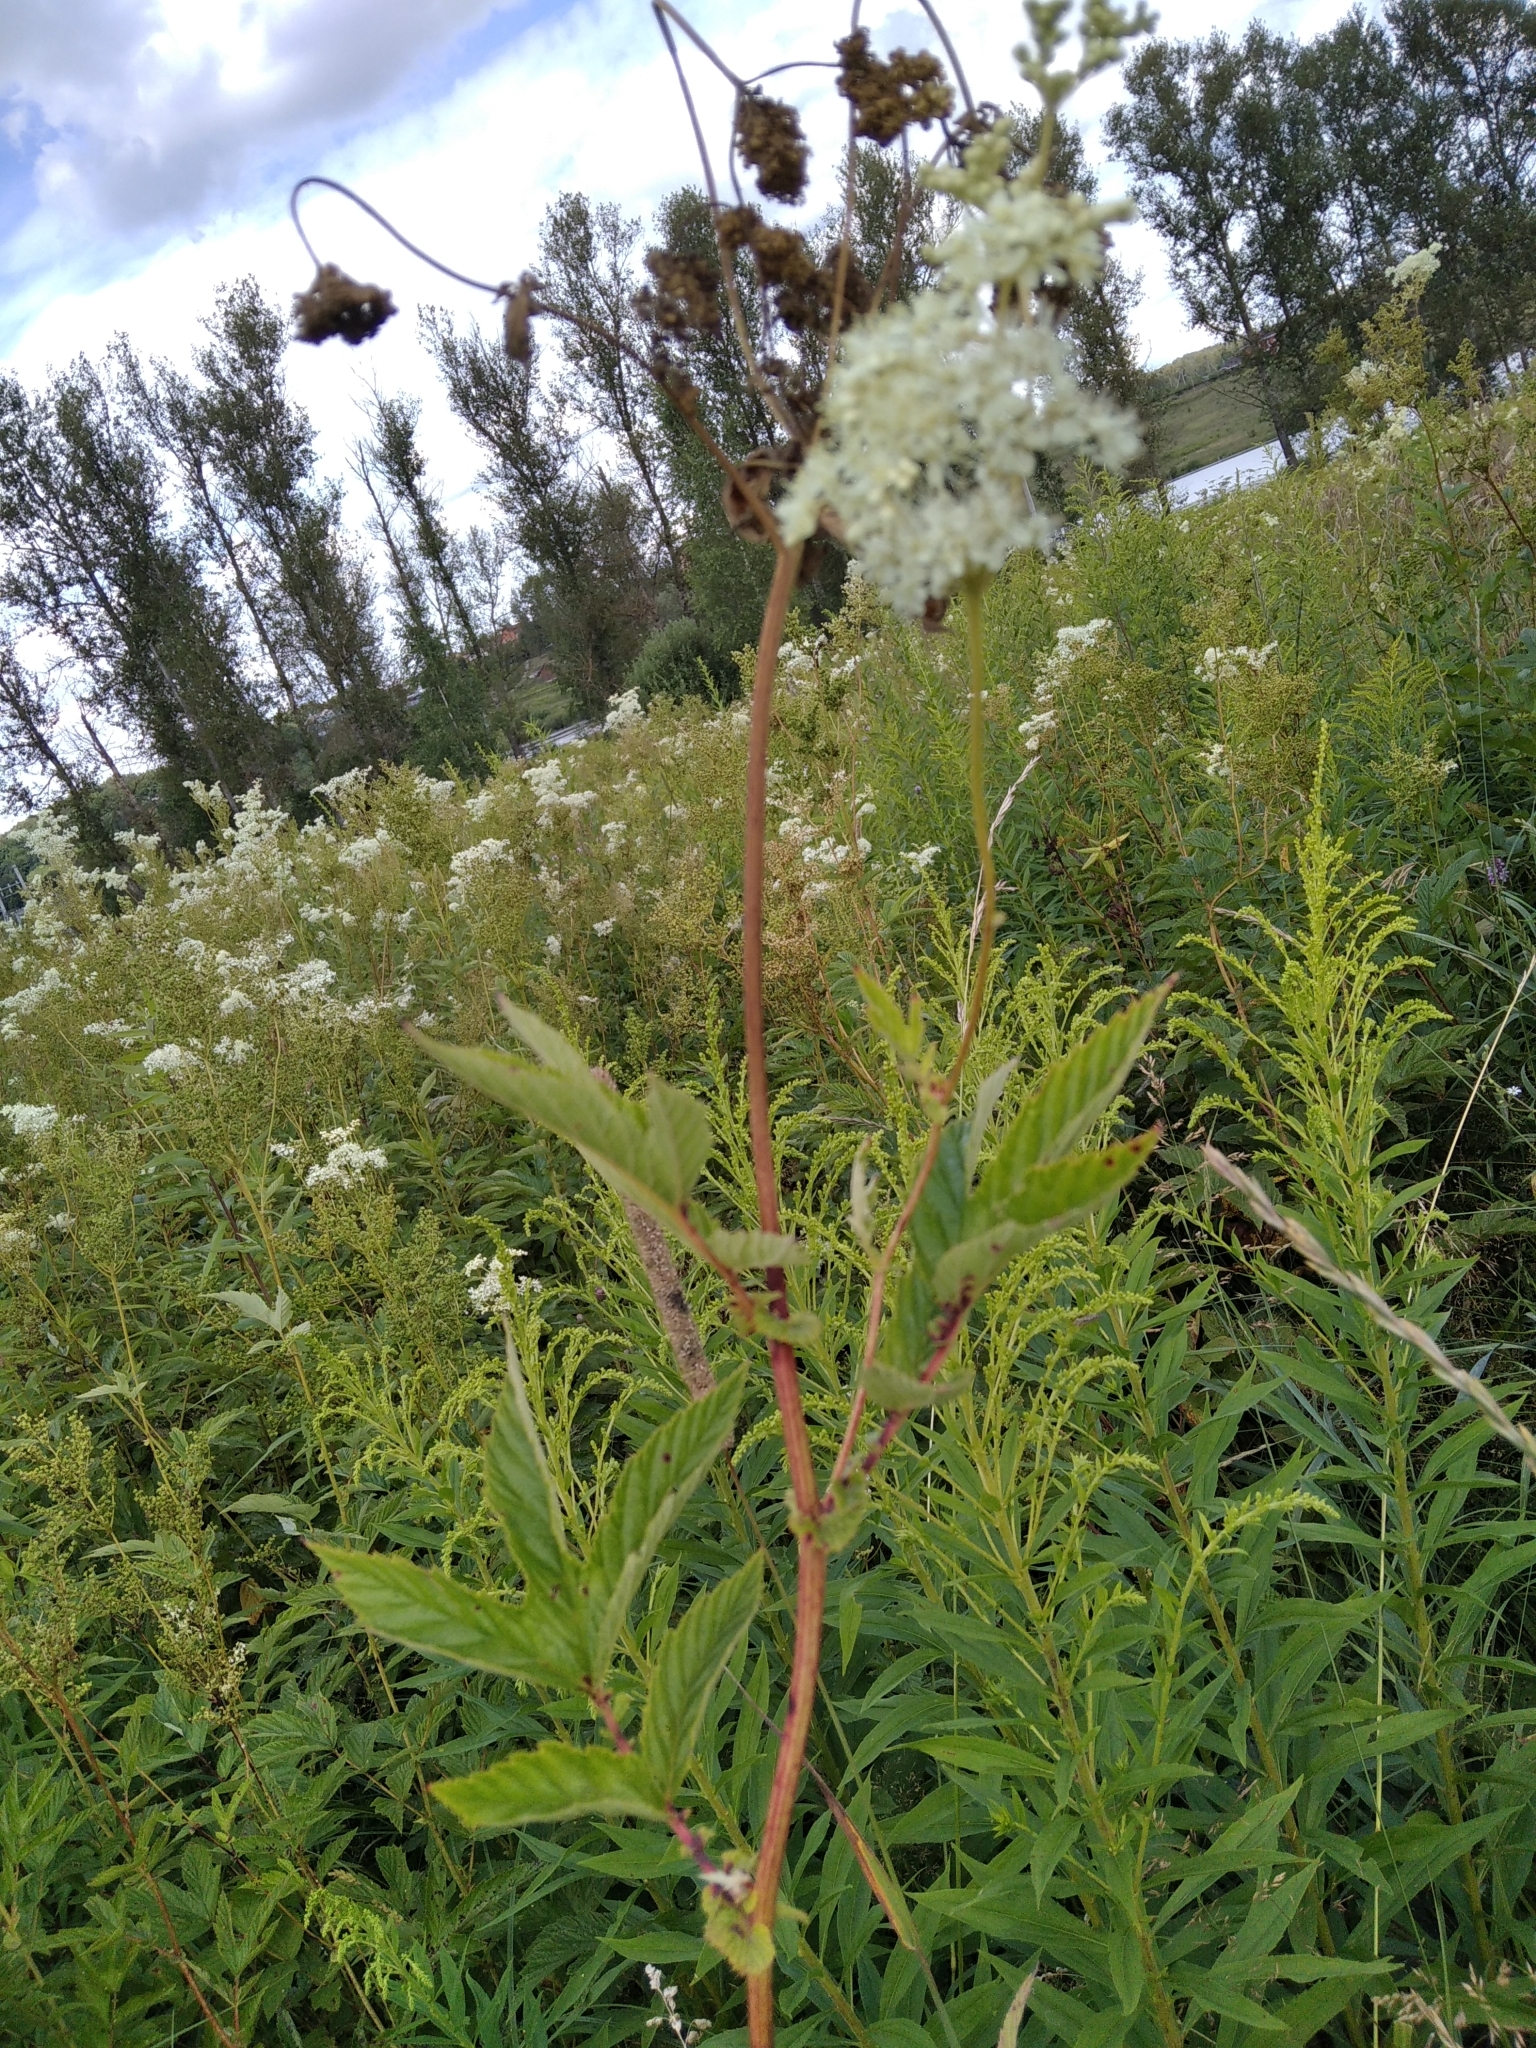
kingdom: Plantae
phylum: Tracheophyta
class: Magnoliopsida
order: Rosales
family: Rosaceae
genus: Filipendula
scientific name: Filipendula ulmaria
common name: Meadowsweet
